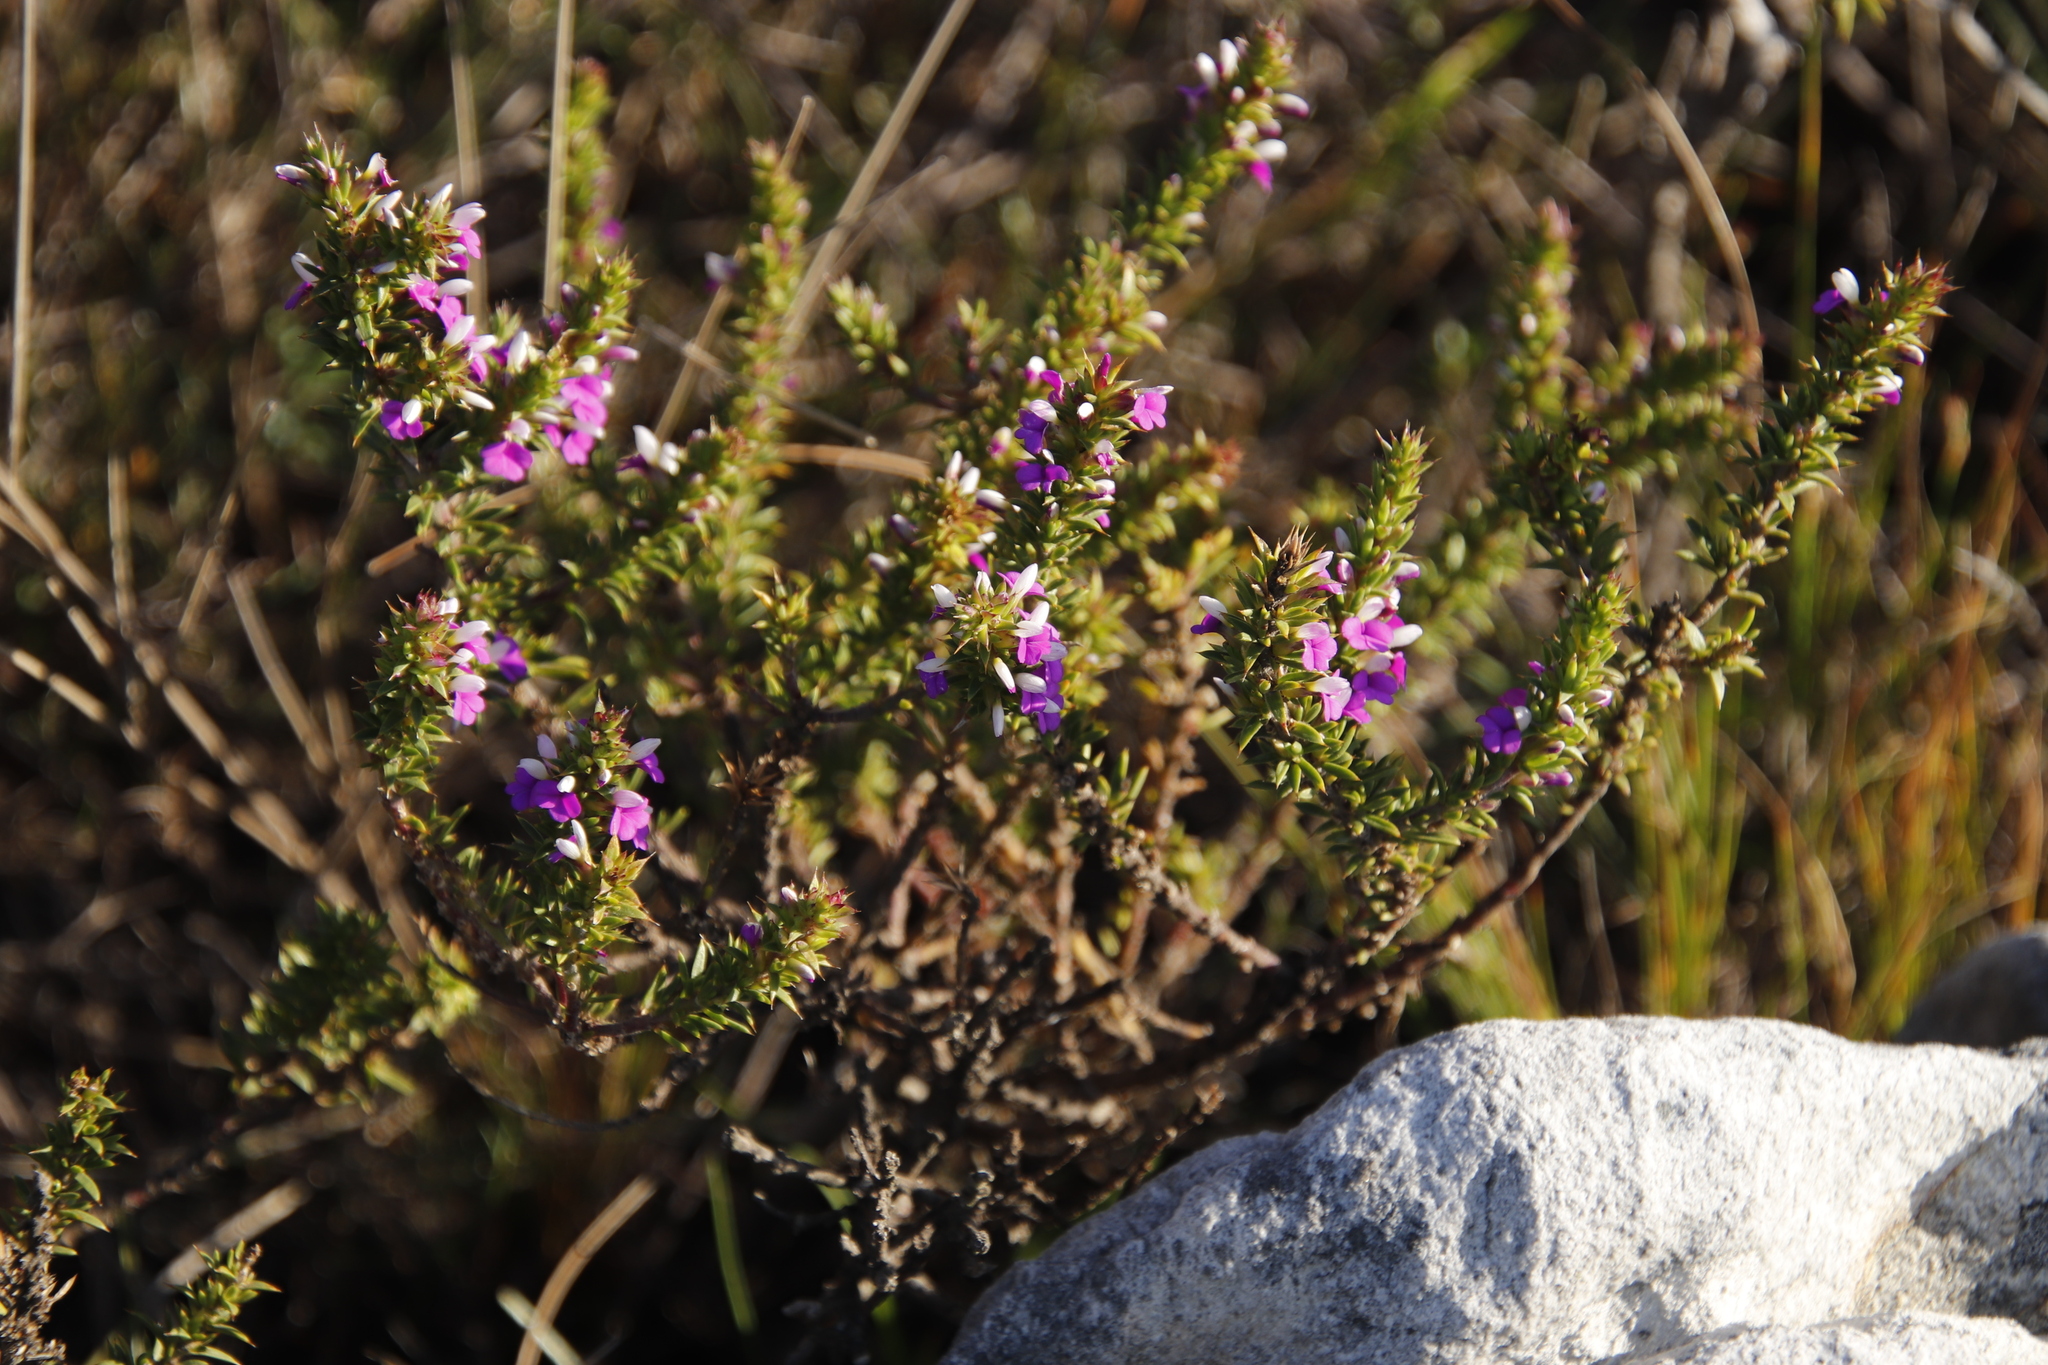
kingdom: Plantae
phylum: Tracheophyta
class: Magnoliopsida
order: Fabales
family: Polygalaceae
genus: Muraltia
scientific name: Muraltia heisteria
